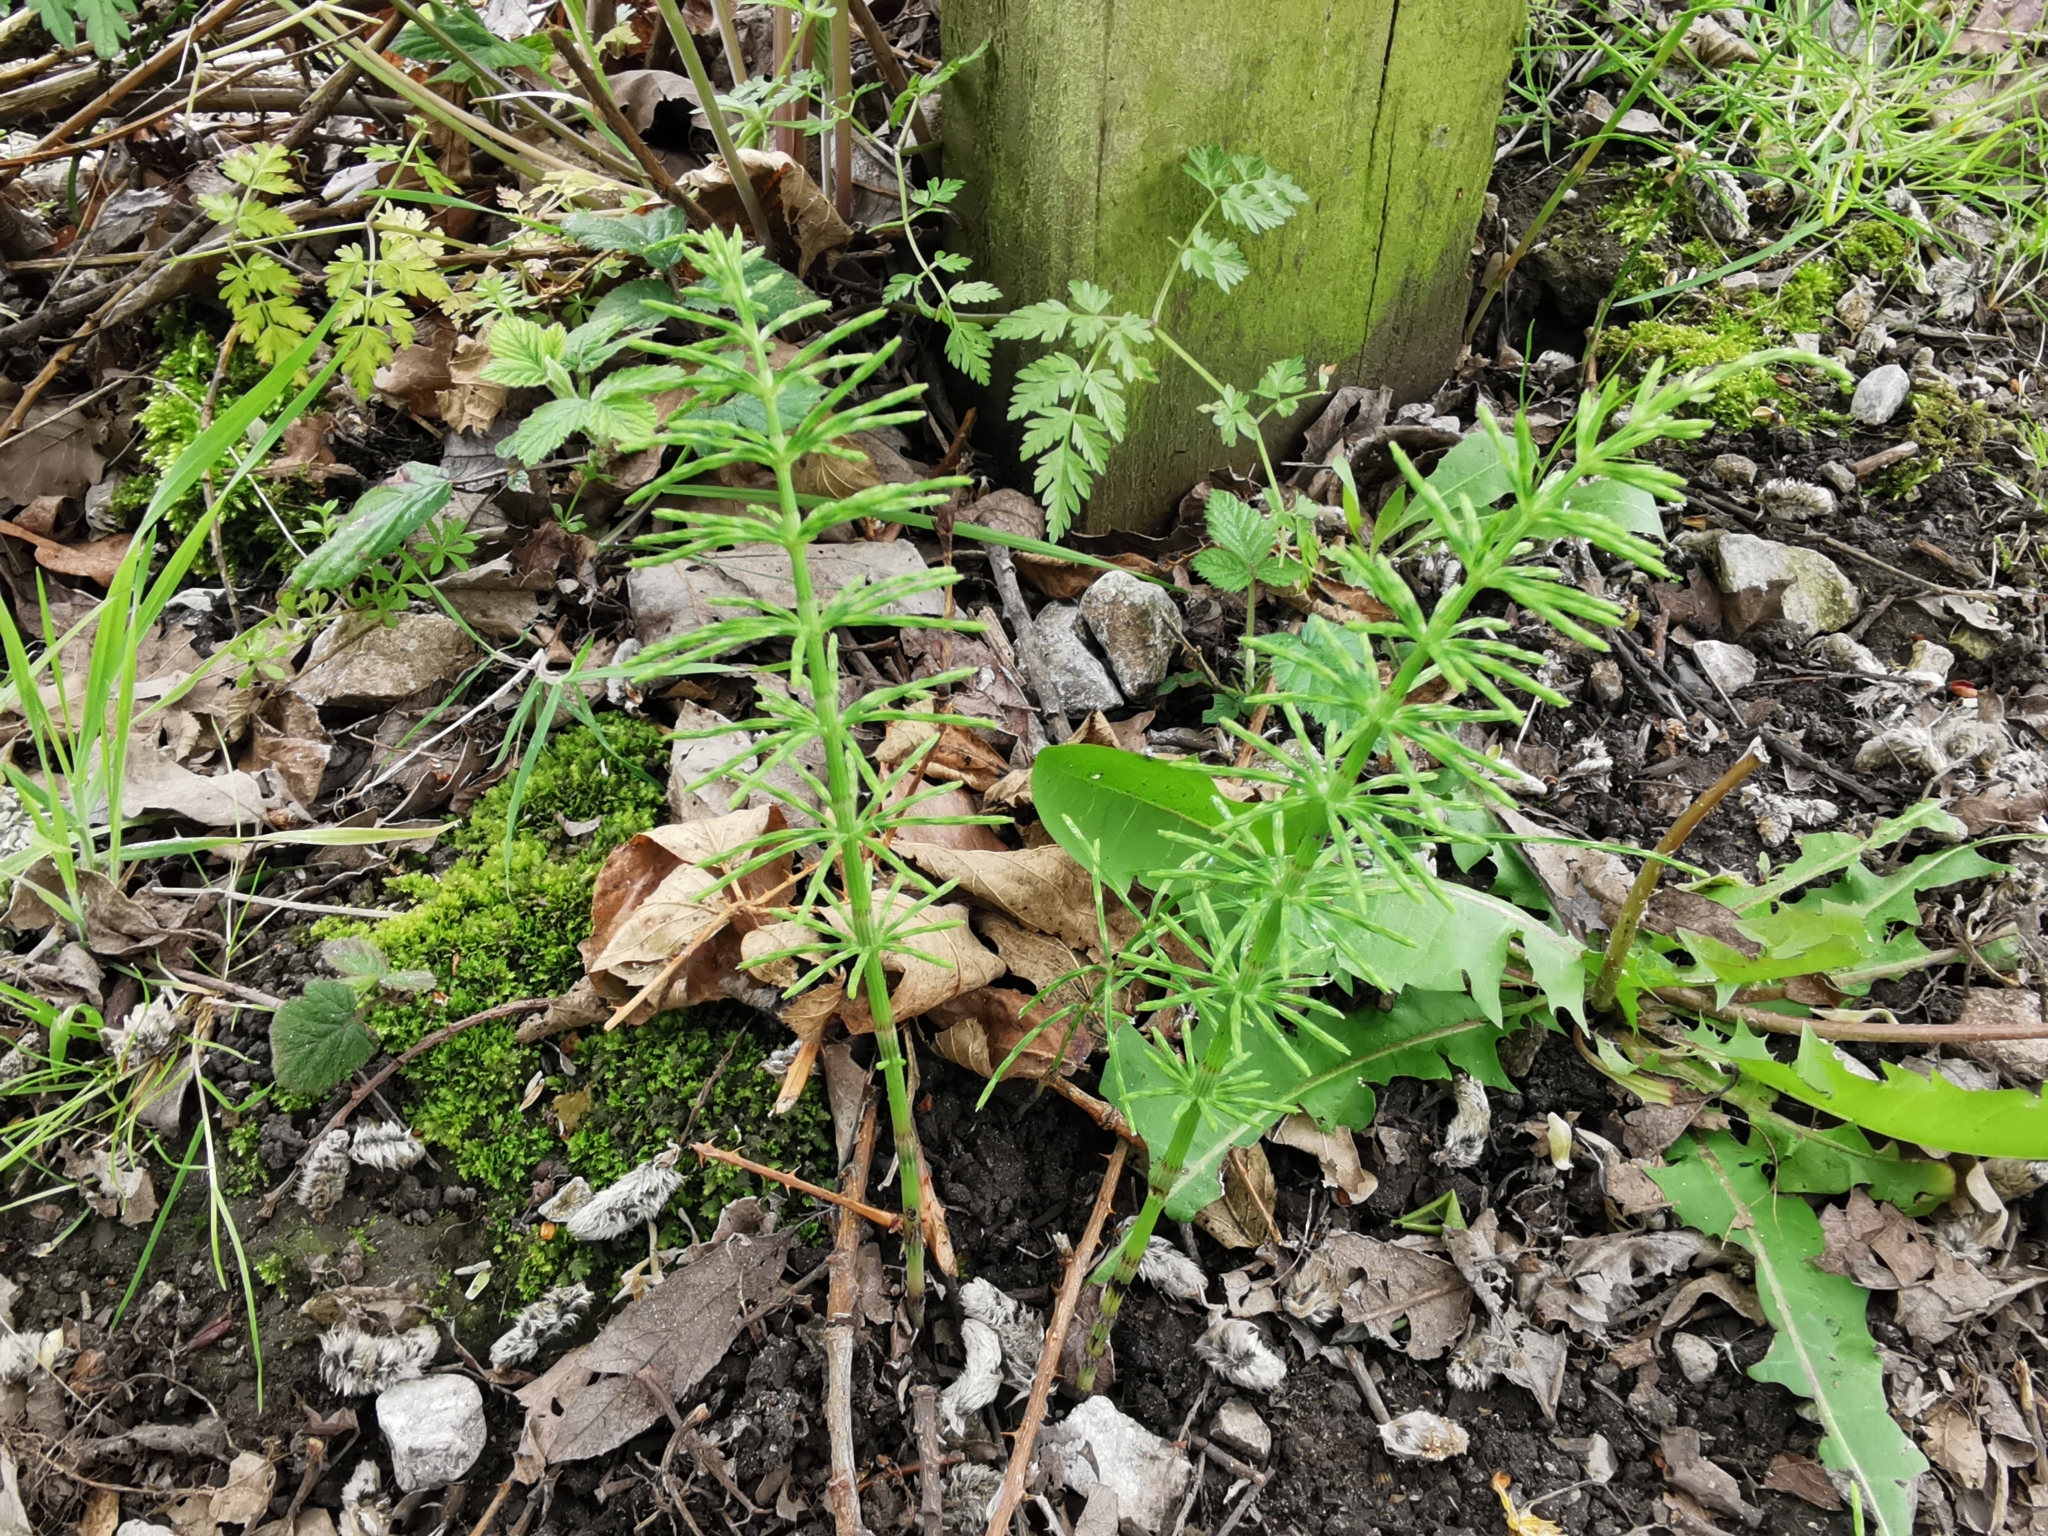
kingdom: Plantae
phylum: Tracheophyta
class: Polypodiopsida
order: Equisetales
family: Equisetaceae
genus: Equisetum
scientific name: Equisetum arvense
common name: Field horsetail
